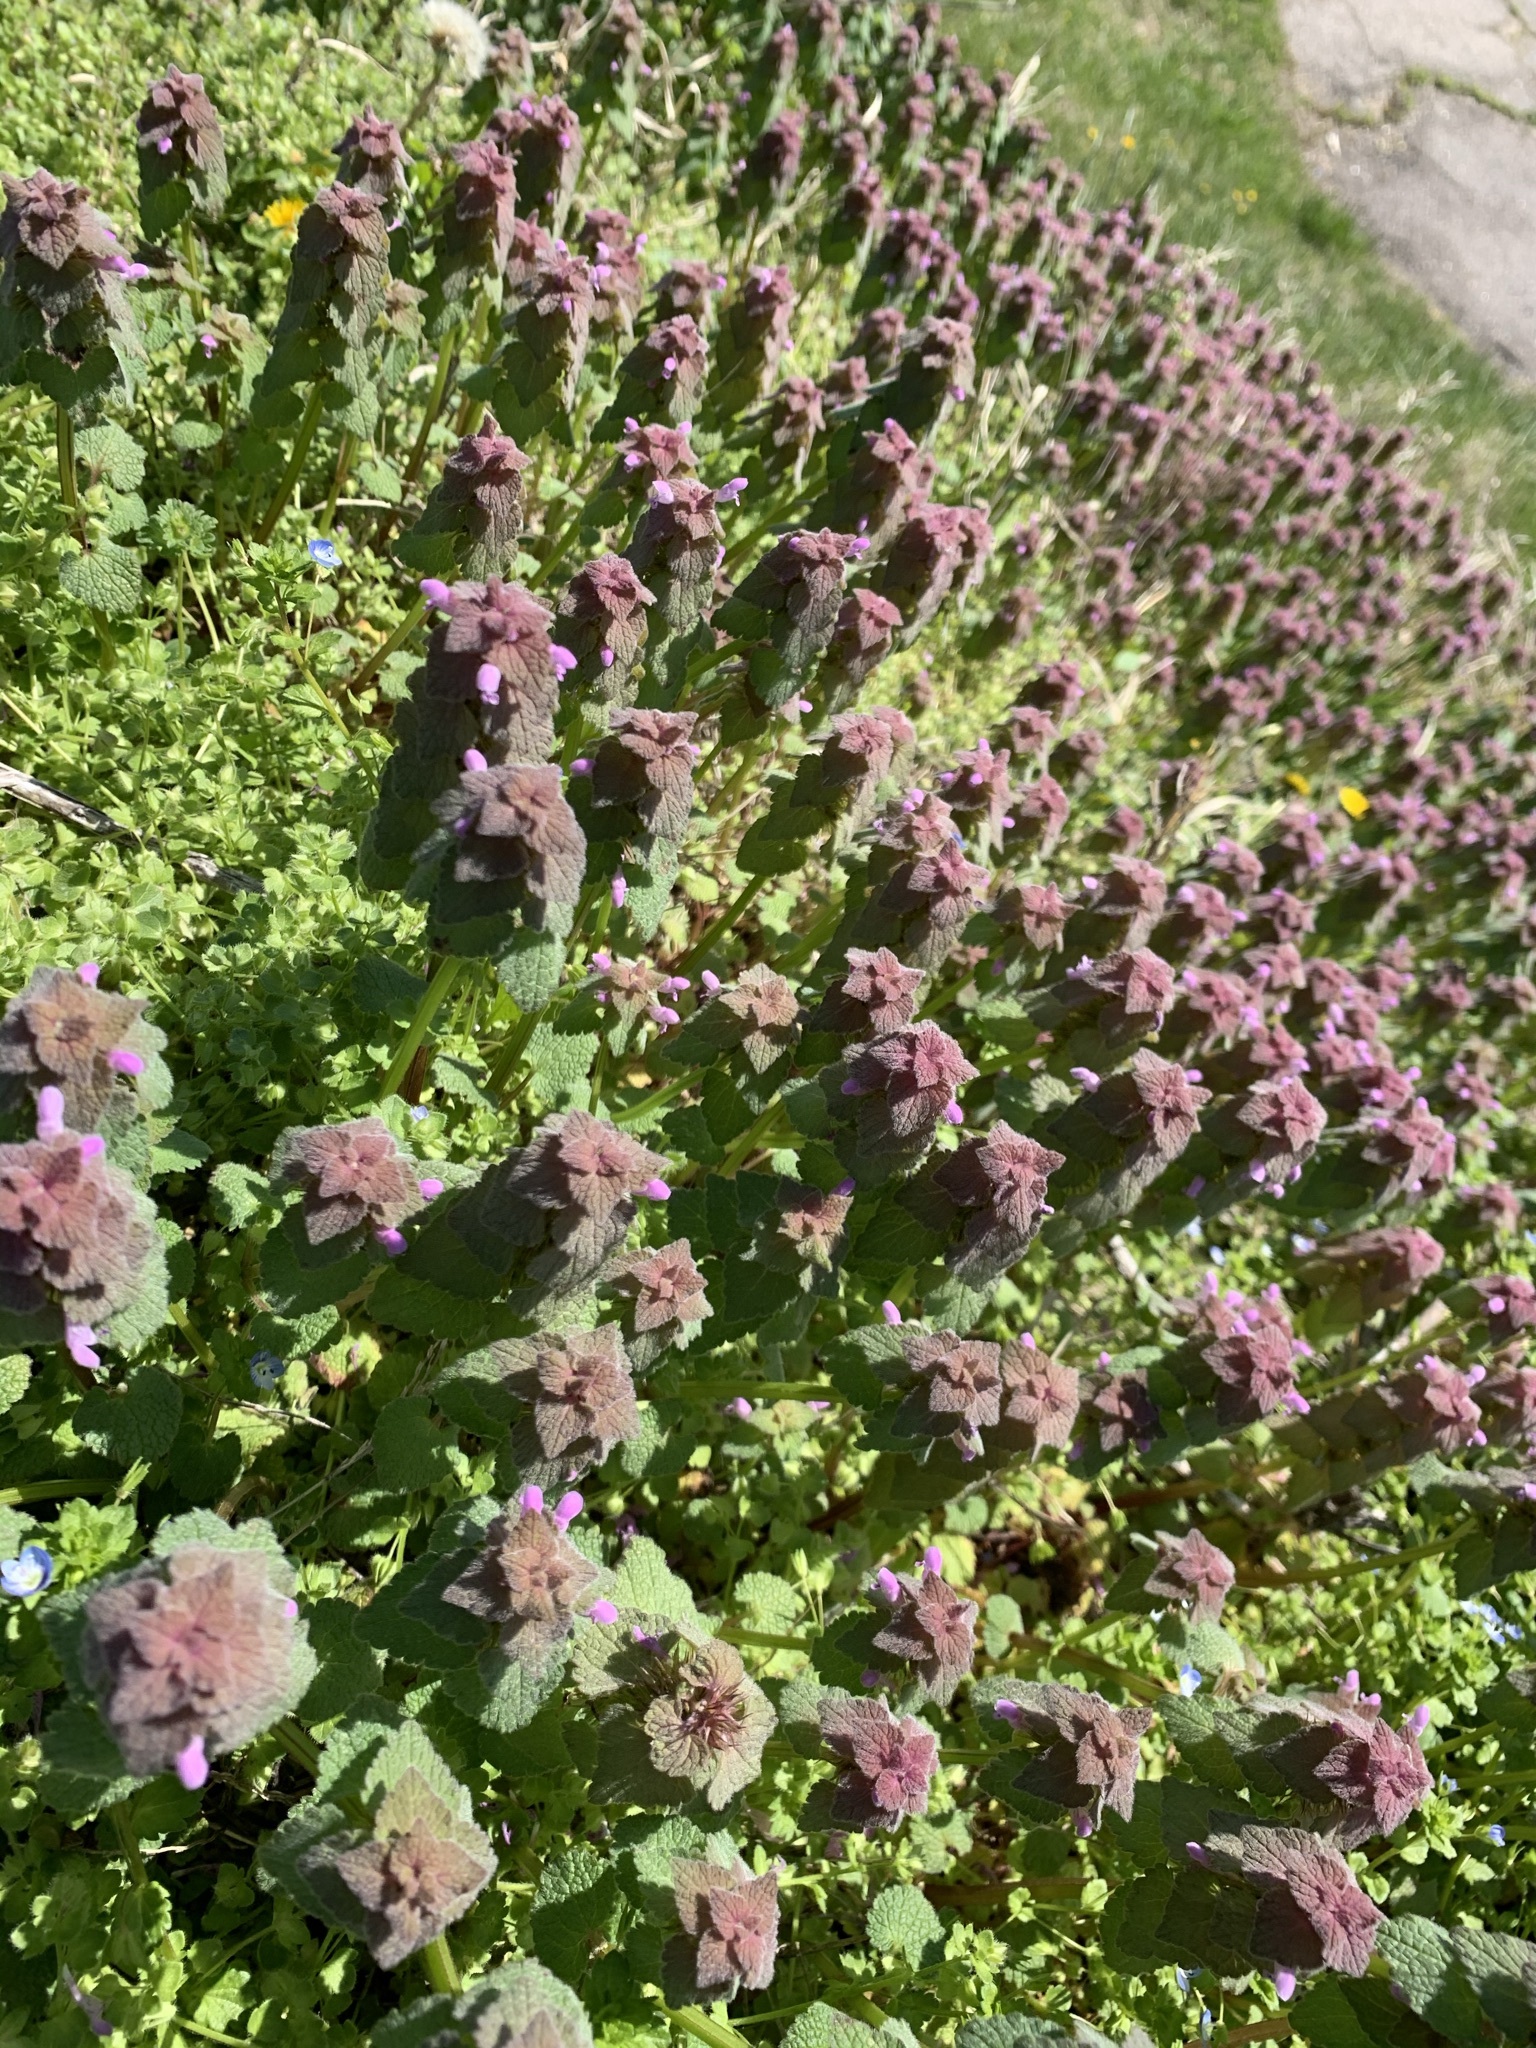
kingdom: Plantae
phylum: Tracheophyta
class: Magnoliopsida
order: Lamiales
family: Lamiaceae
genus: Lamium
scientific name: Lamium purpureum
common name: Red dead-nettle
